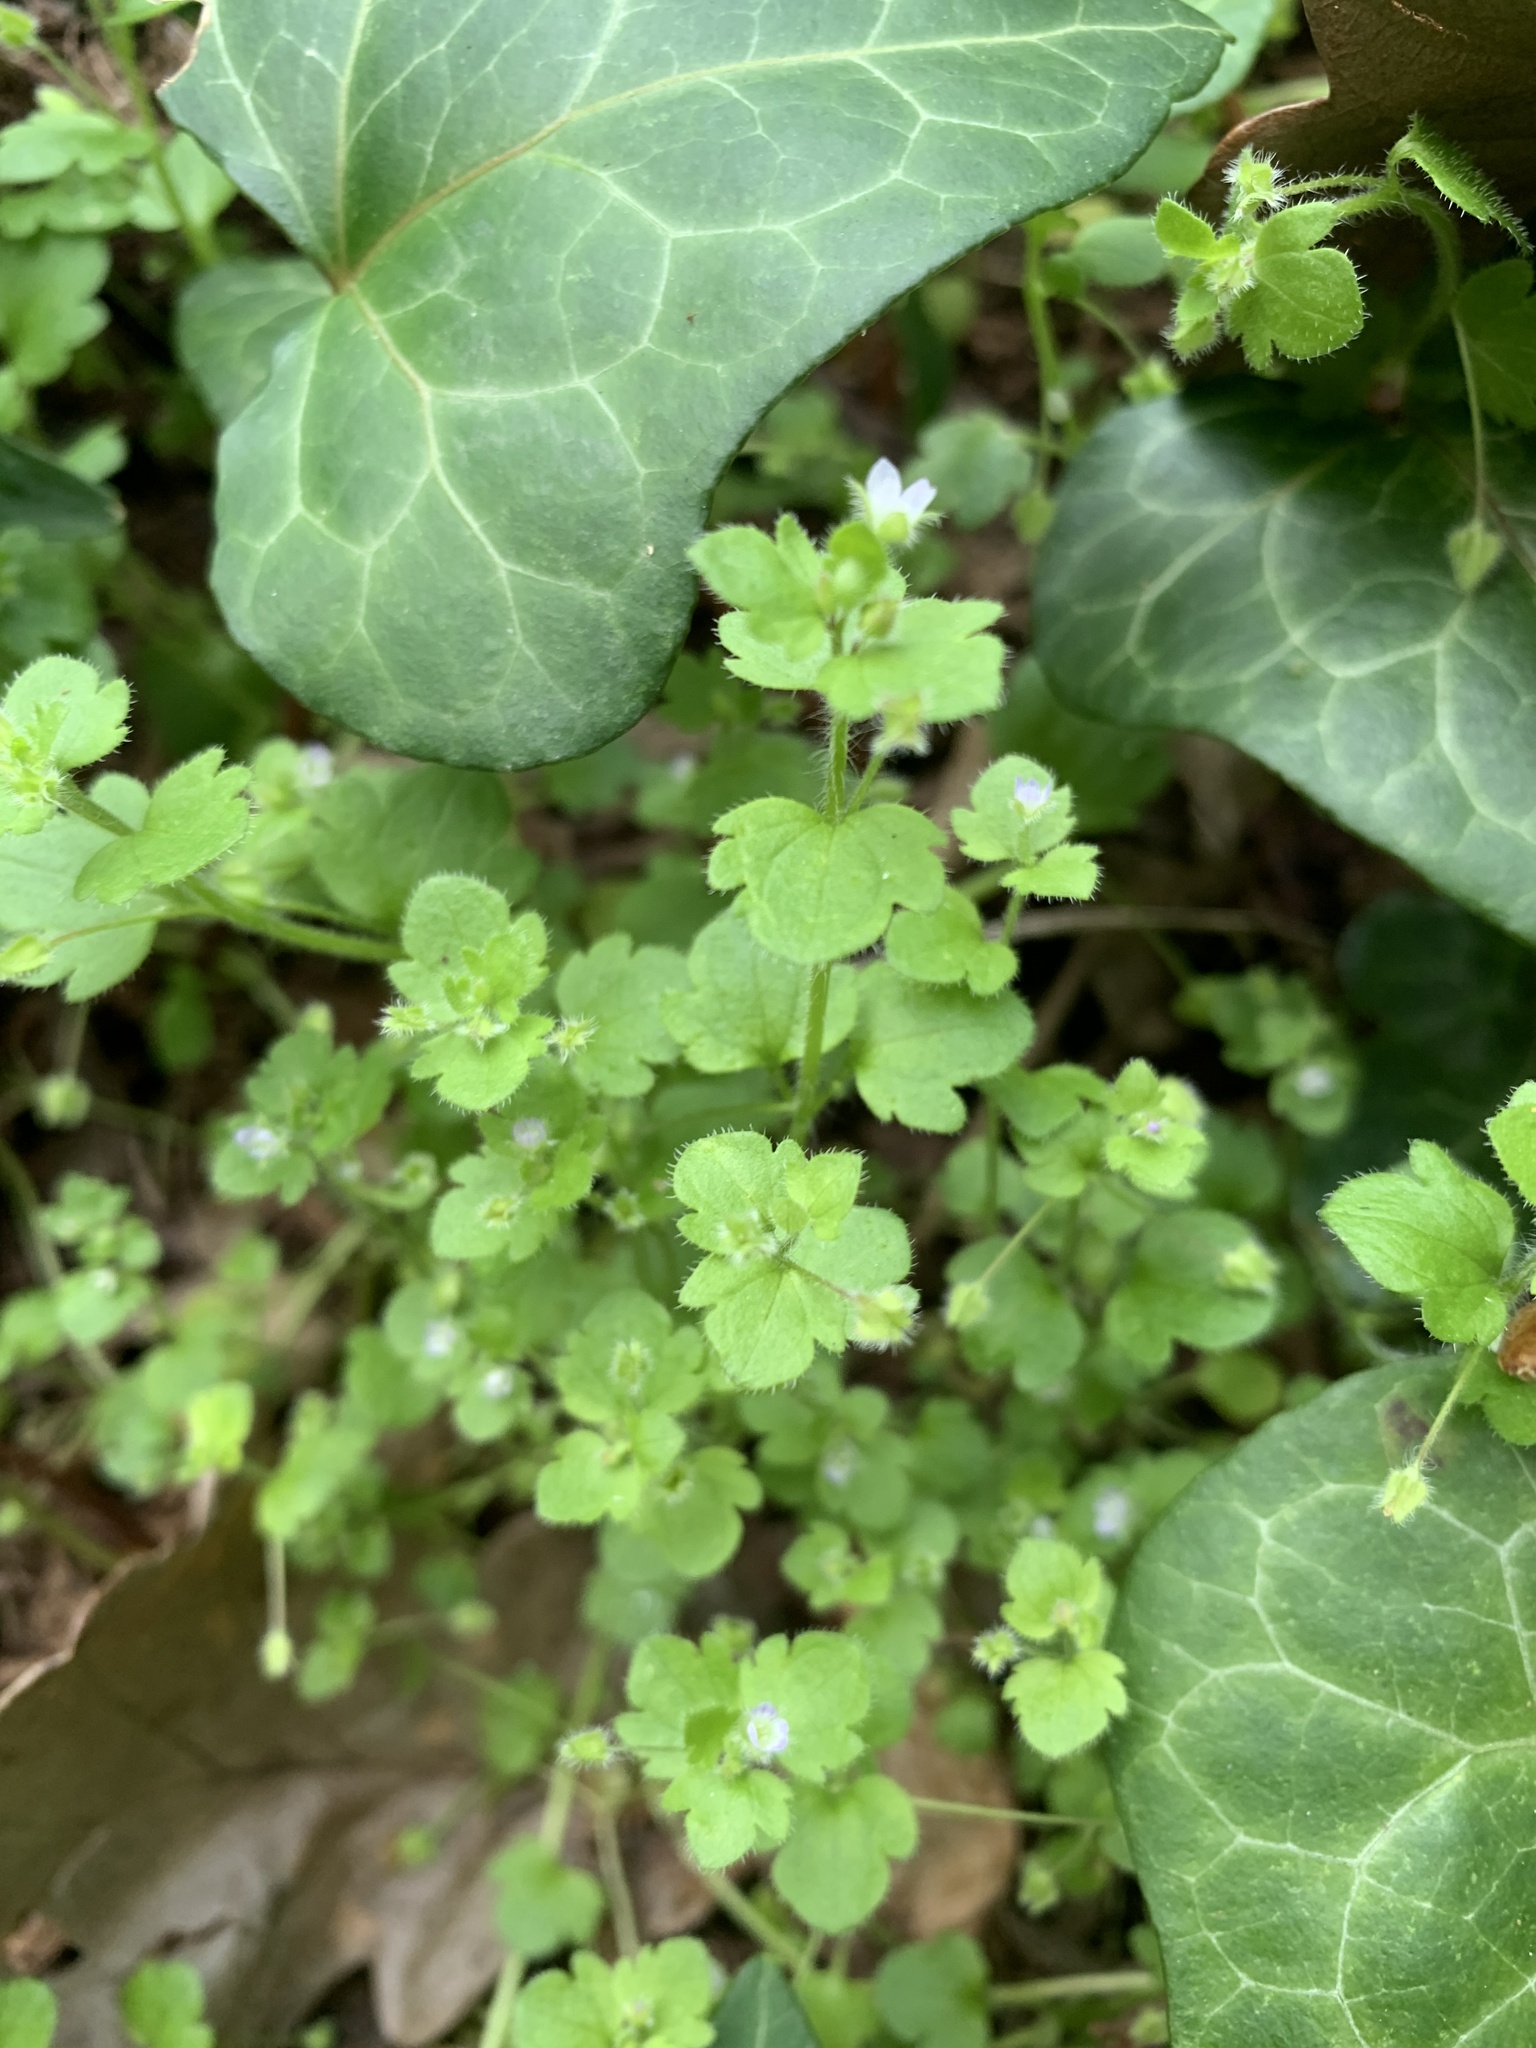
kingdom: Plantae
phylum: Tracheophyta
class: Magnoliopsida
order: Lamiales
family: Plantaginaceae
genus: Veronica
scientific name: Veronica sublobata
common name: False ivy-leaved speedwell
